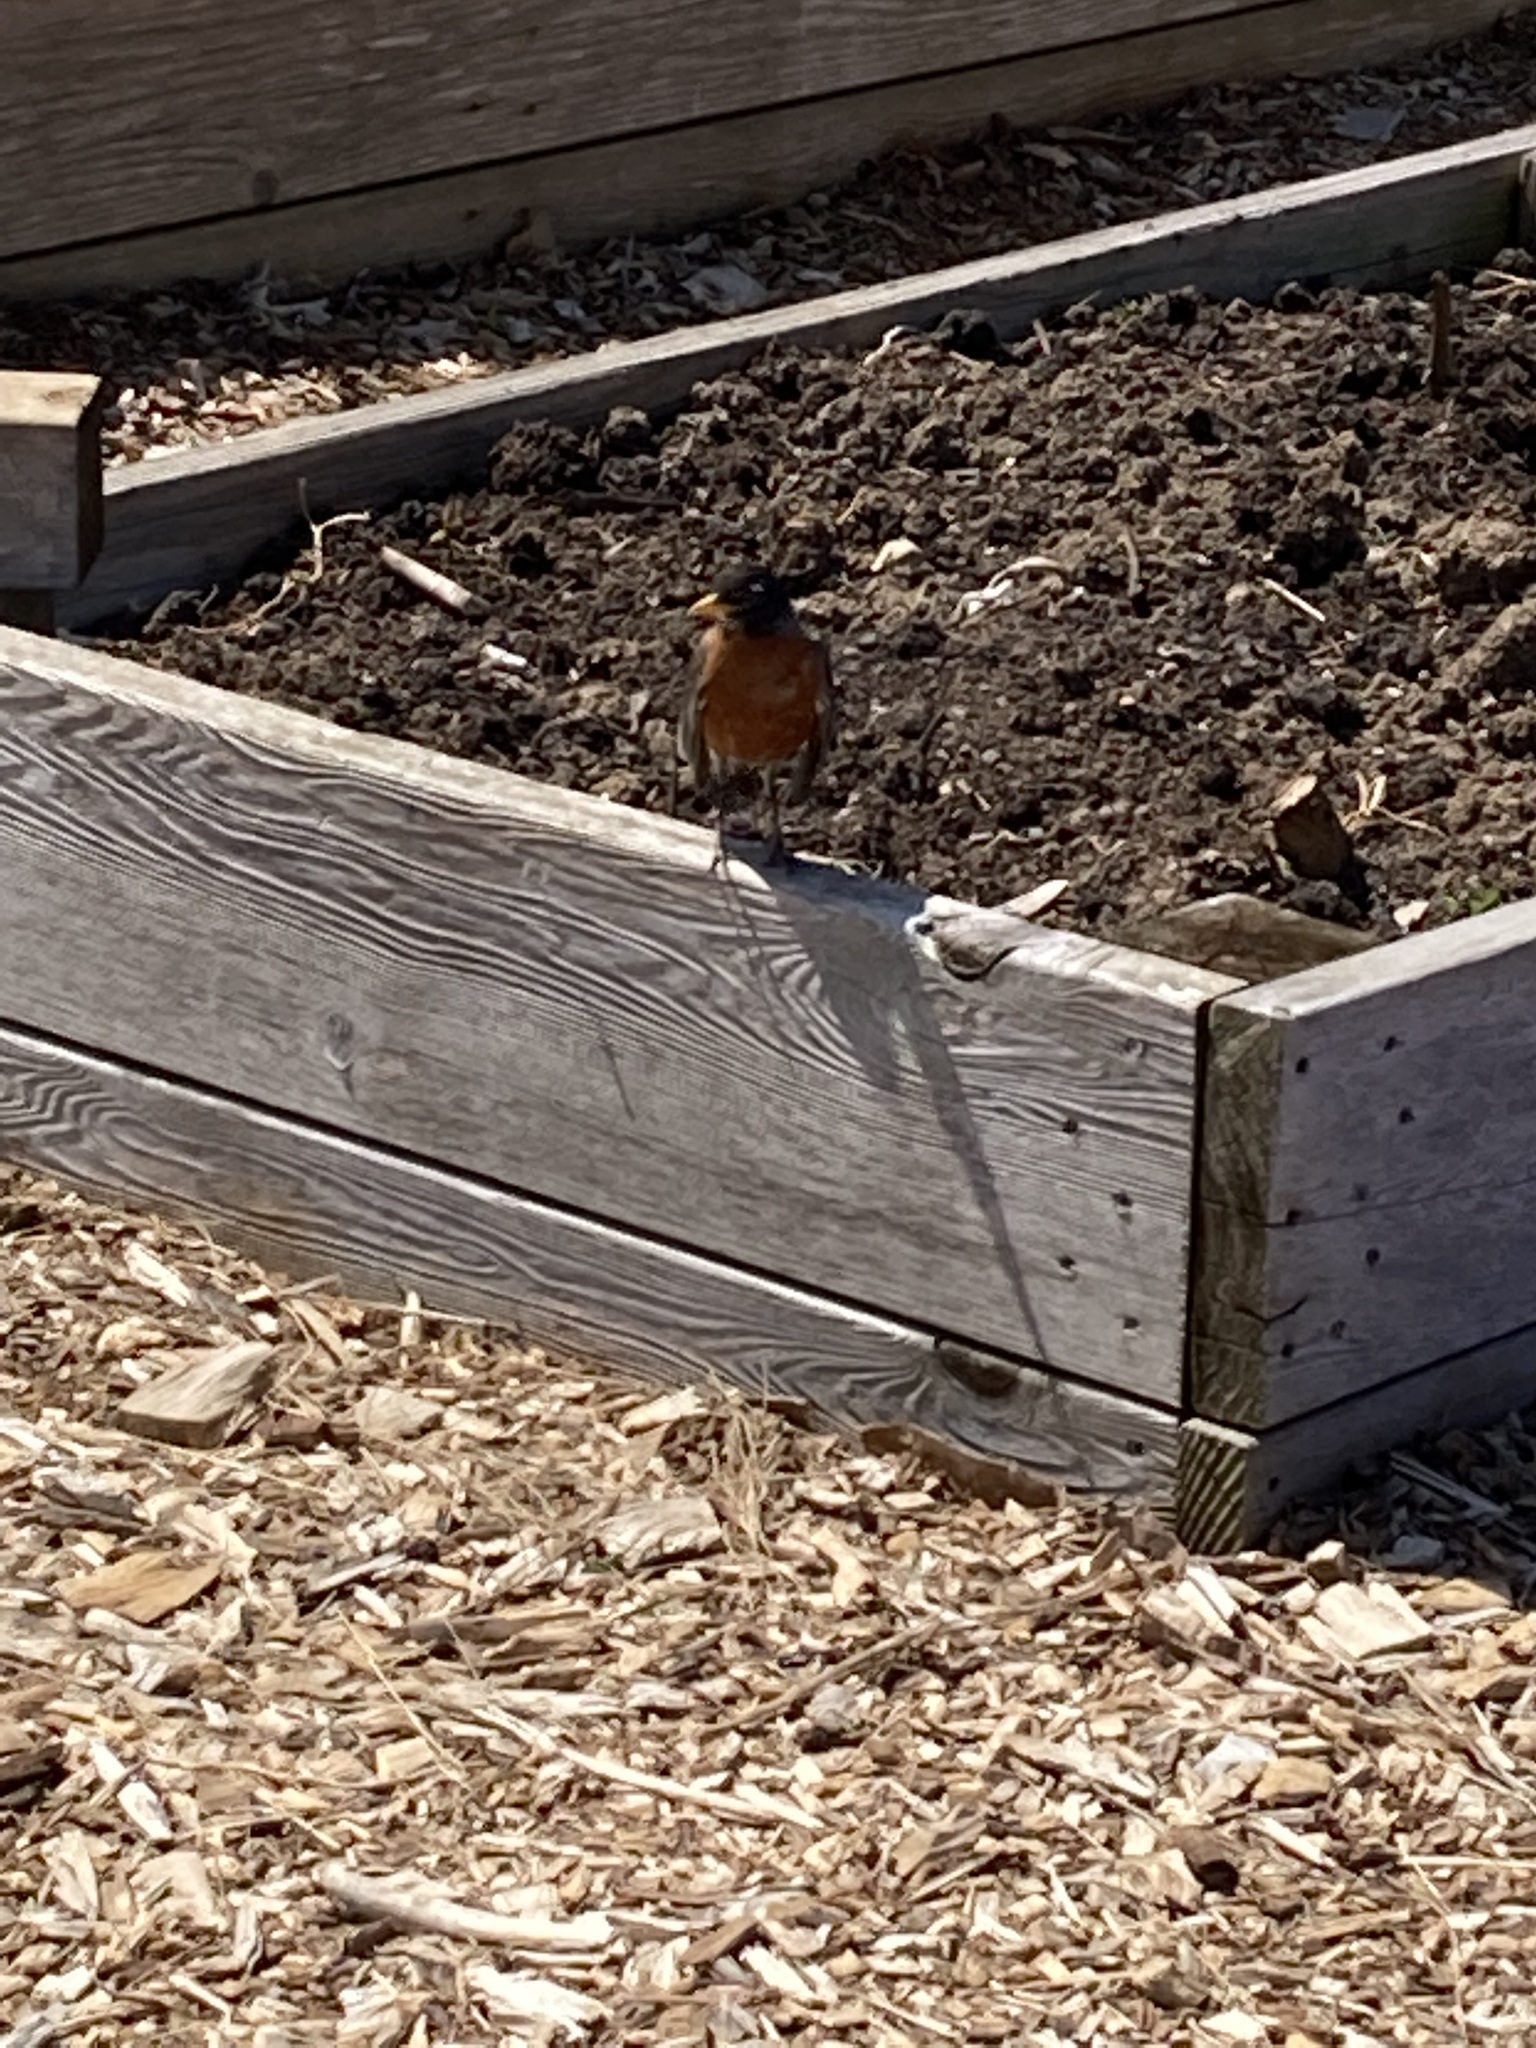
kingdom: Animalia
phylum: Chordata
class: Aves
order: Passeriformes
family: Turdidae
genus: Turdus
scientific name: Turdus migratorius
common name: American robin
